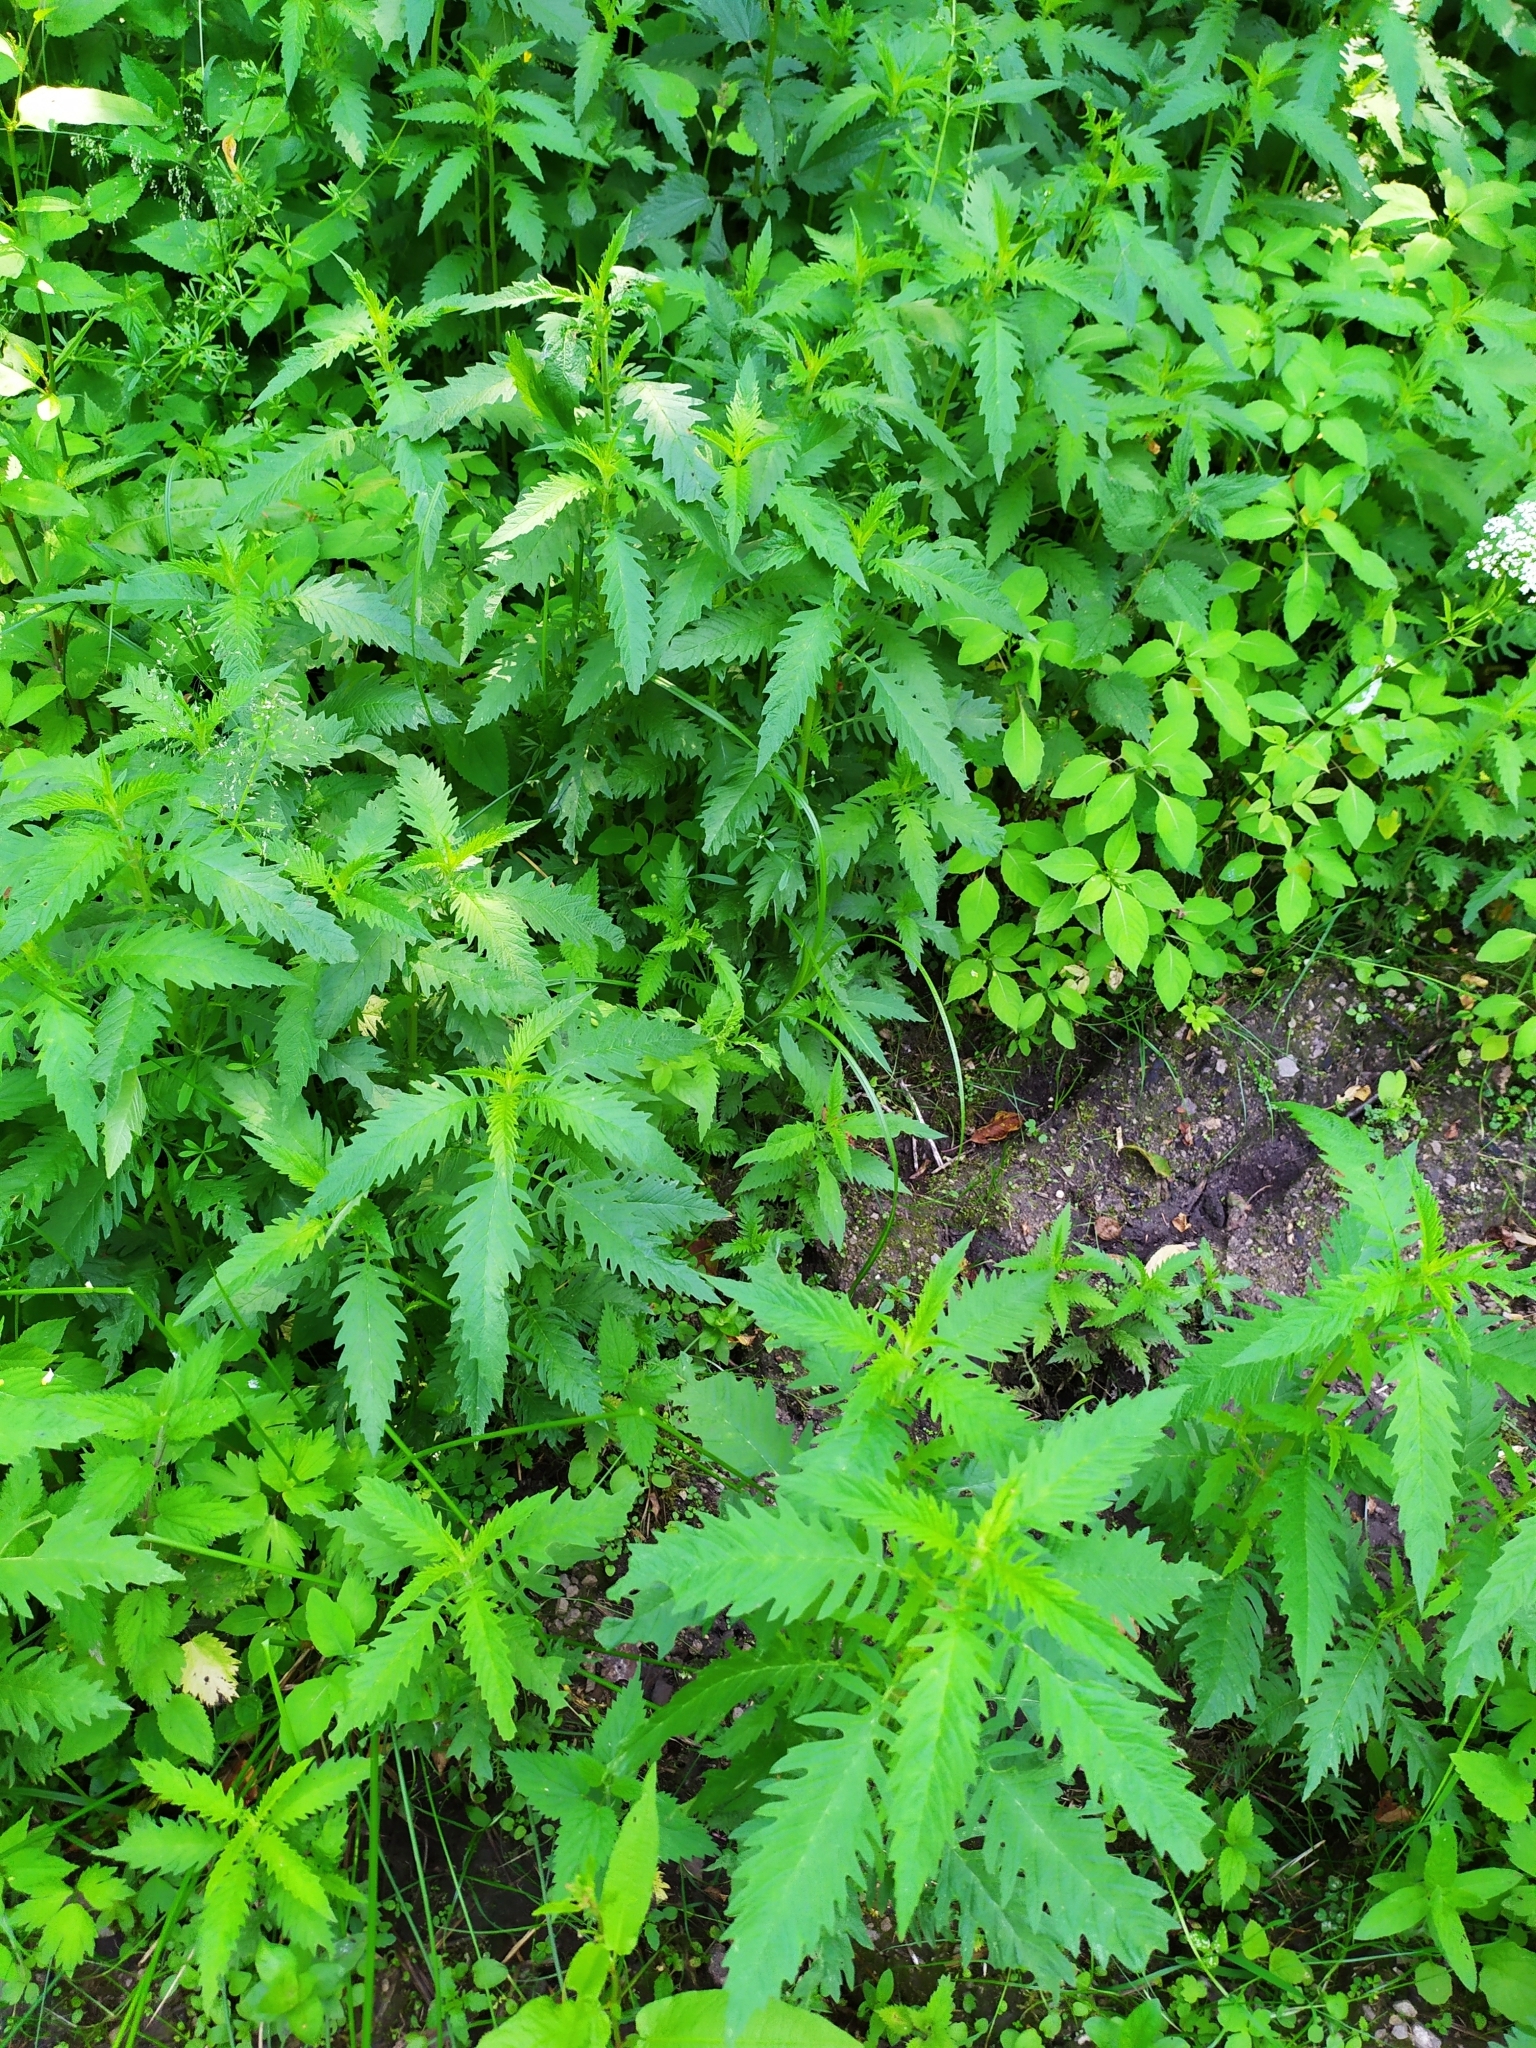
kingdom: Plantae
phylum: Tracheophyta
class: Magnoliopsida
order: Lamiales
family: Lamiaceae
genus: Lycopus
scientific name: Lycopus europaeus
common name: European bugleweed
